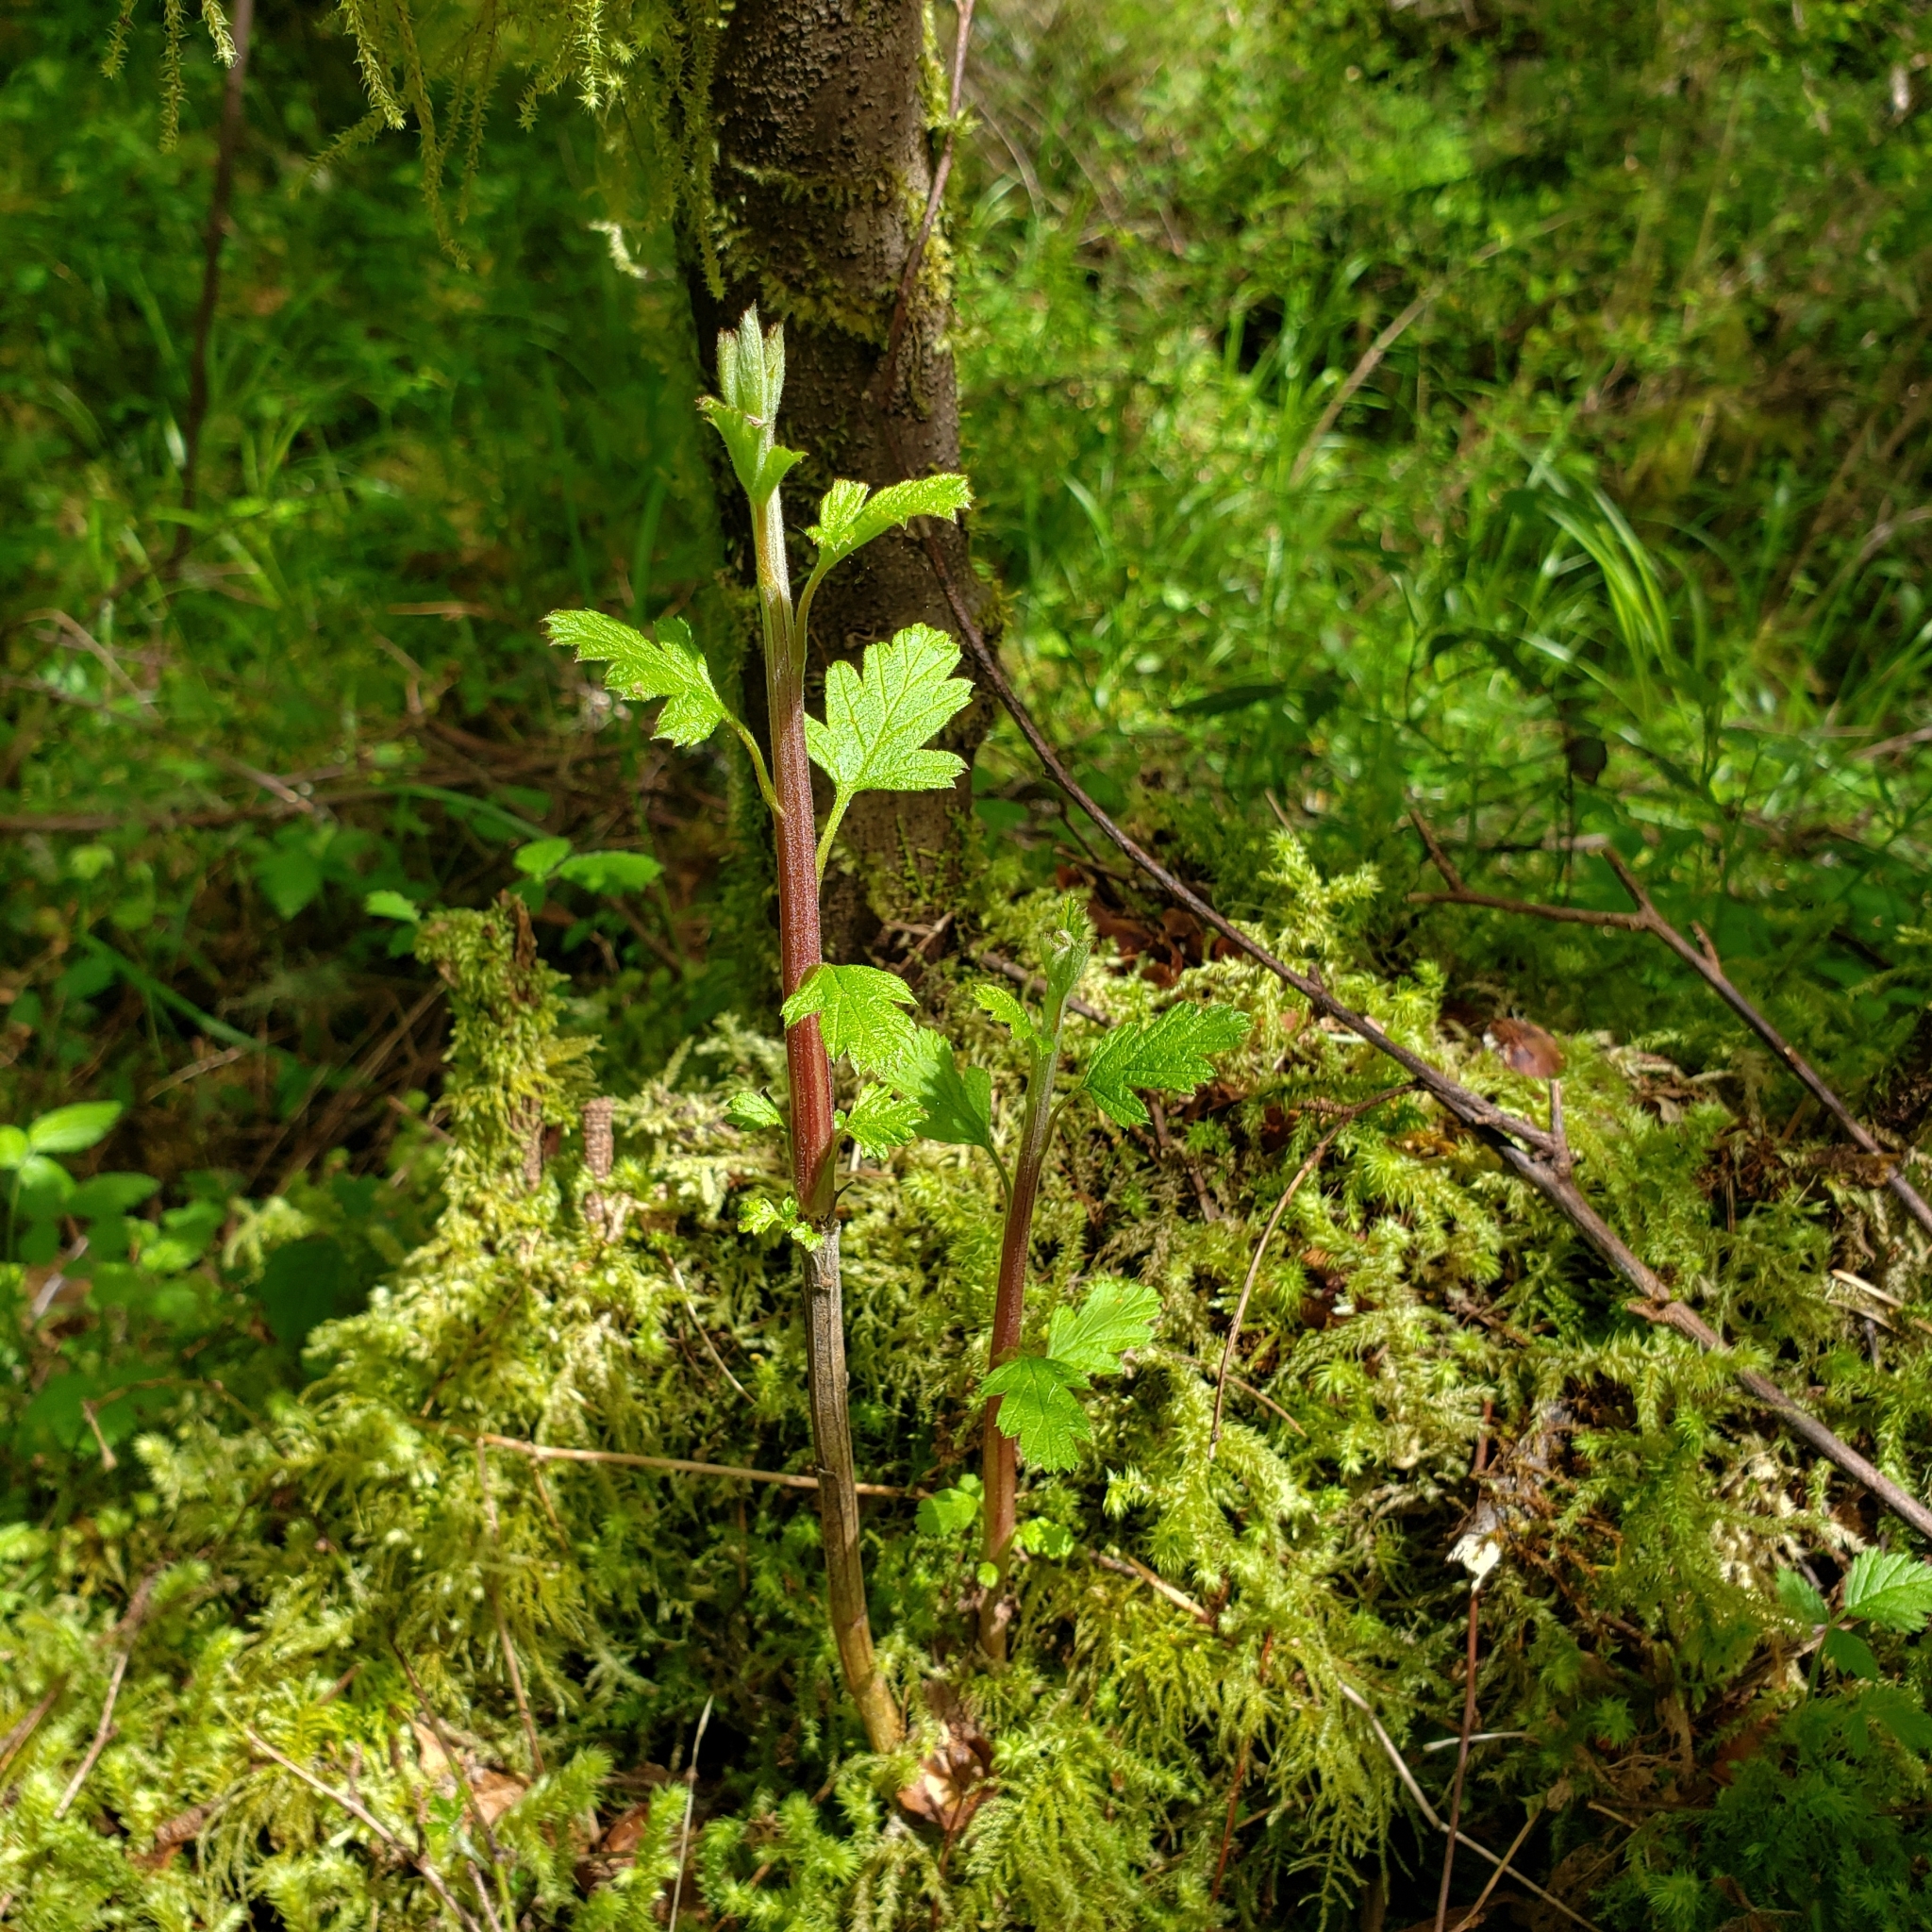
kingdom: Plantae
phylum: Tracheophyta
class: Magnoliopsida
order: Rosales
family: Rosaceae
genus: Holodiscus
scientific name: Holodiscus discolor
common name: Oceanspray
